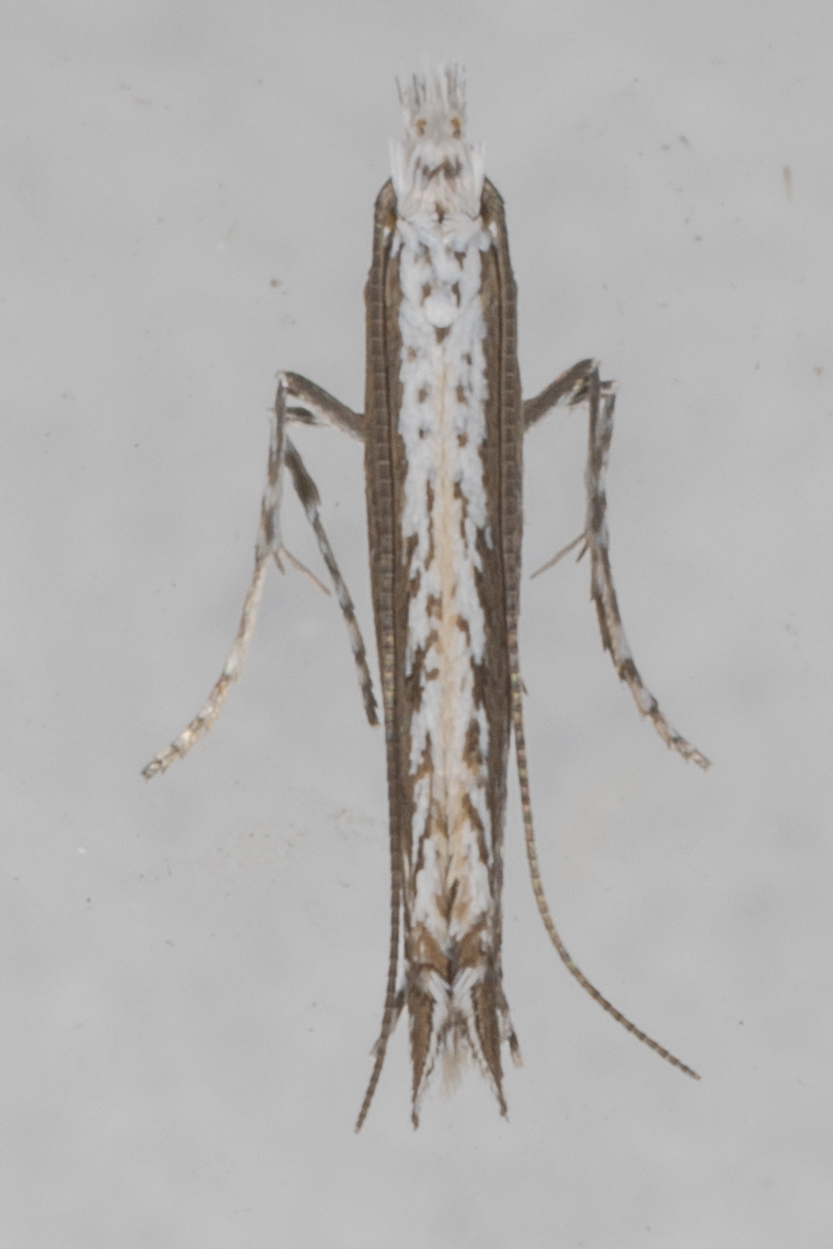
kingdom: Plantae
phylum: Rhodophyta
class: Florideophyceae
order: Gracilariales
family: Gracilariaceae
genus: Gracilaria
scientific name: Gracilaria
